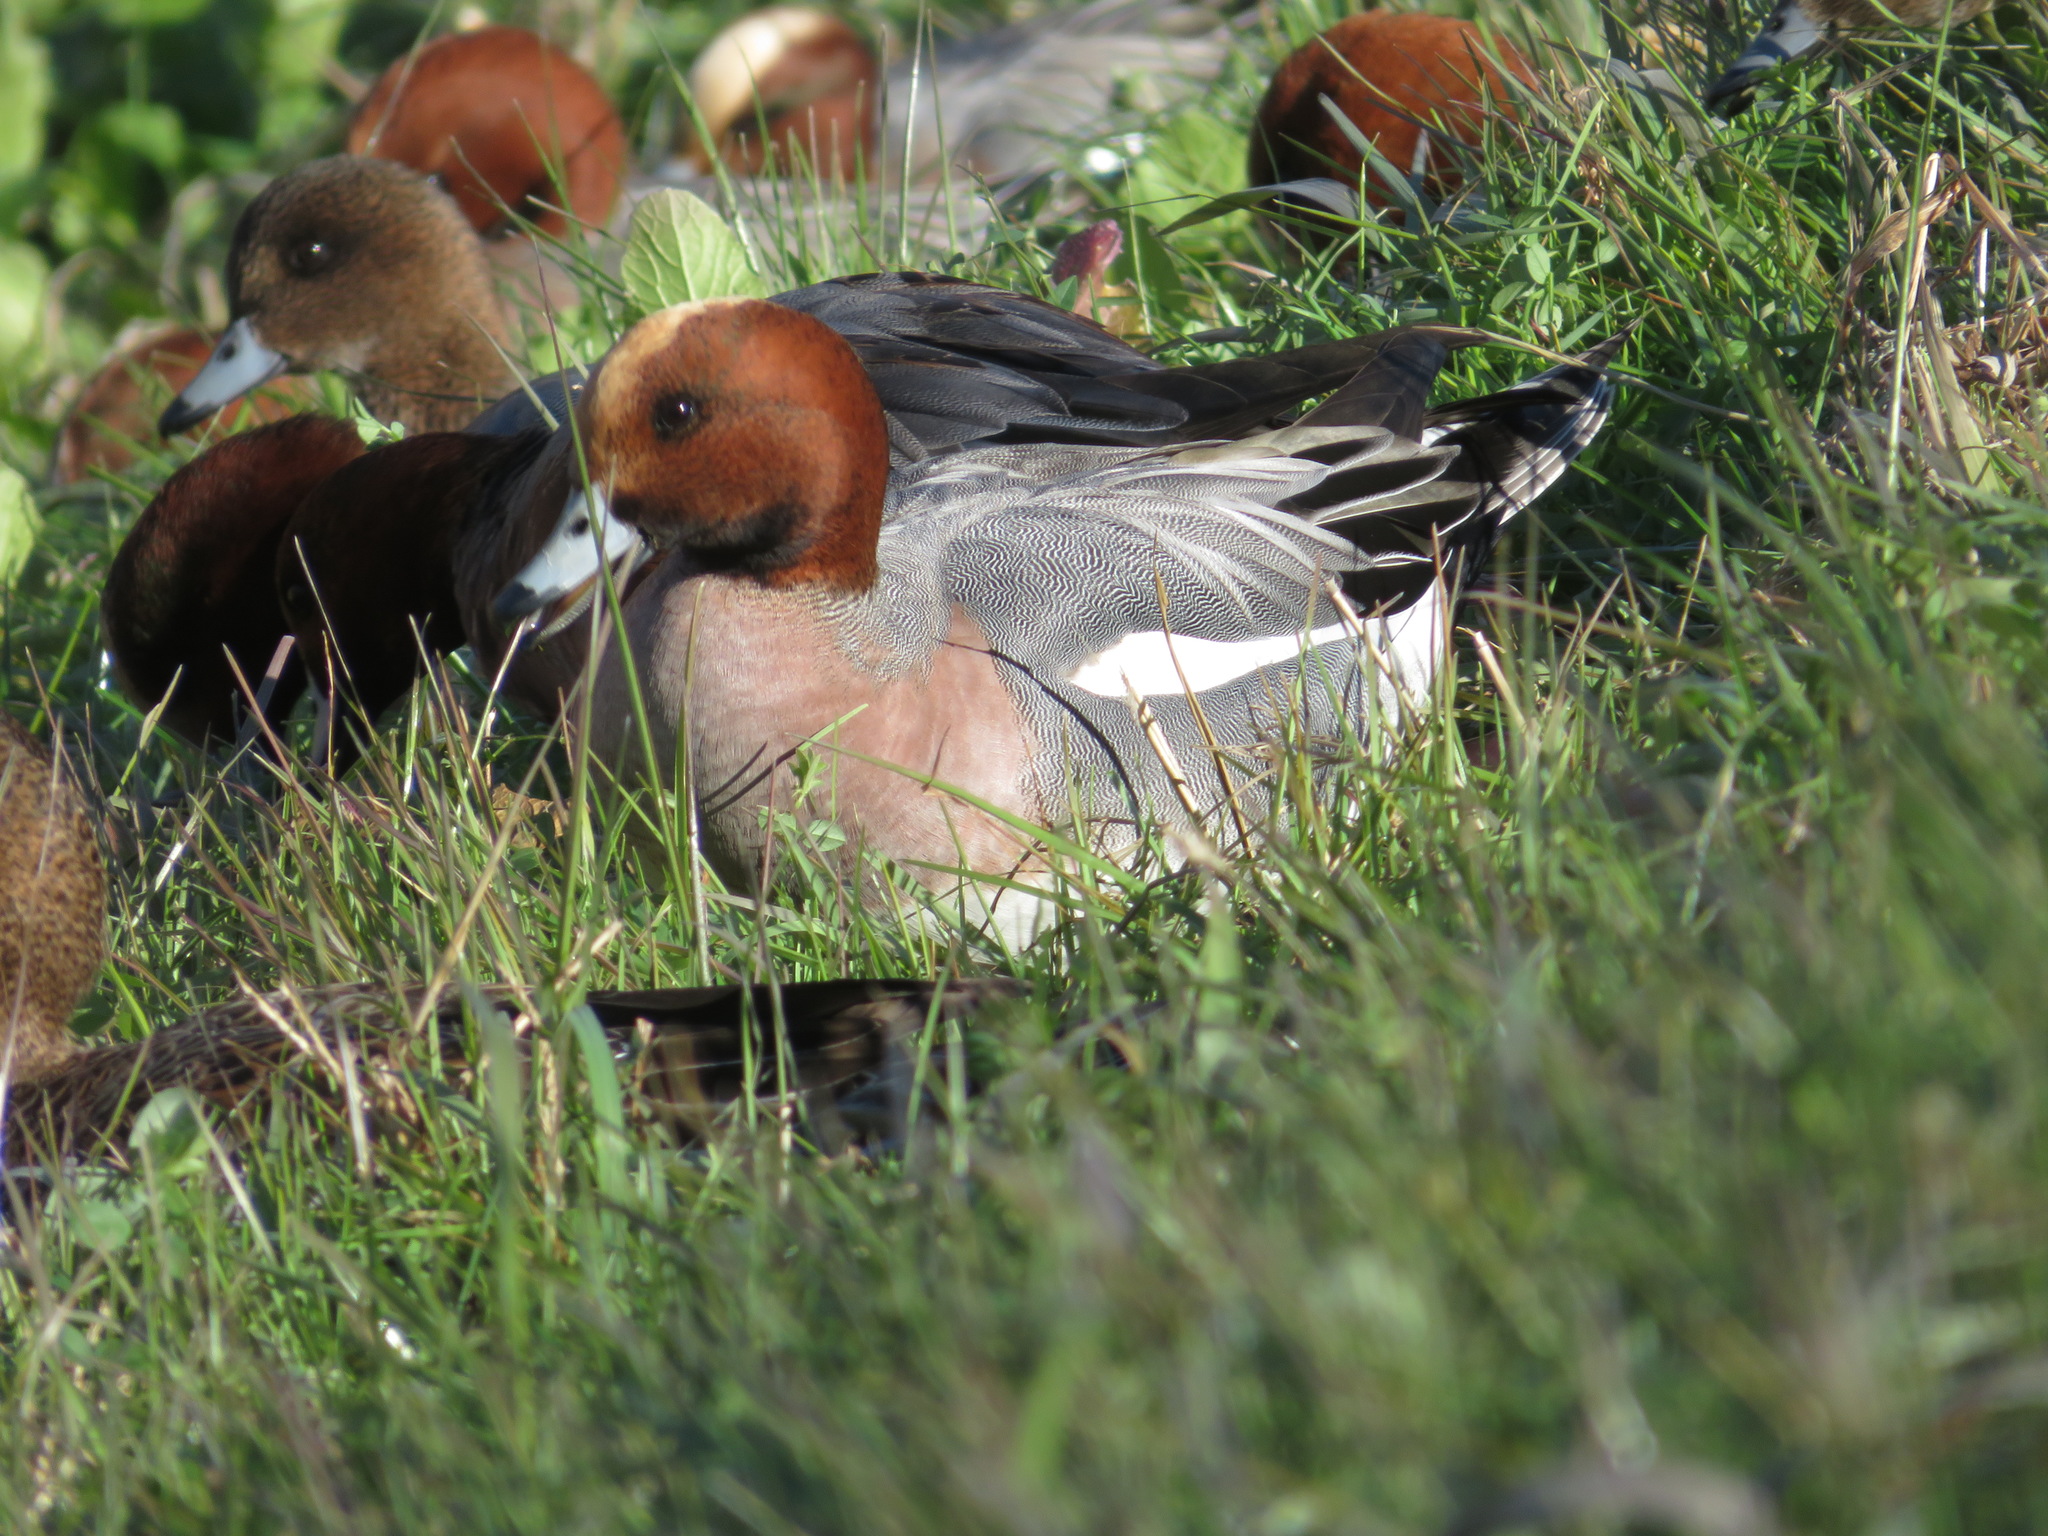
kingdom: Animalia
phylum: Chordata
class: Aves
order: Anseriformes
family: Anatidae
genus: Mareca
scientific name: Mareca penelope
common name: Eurasian wigeon
